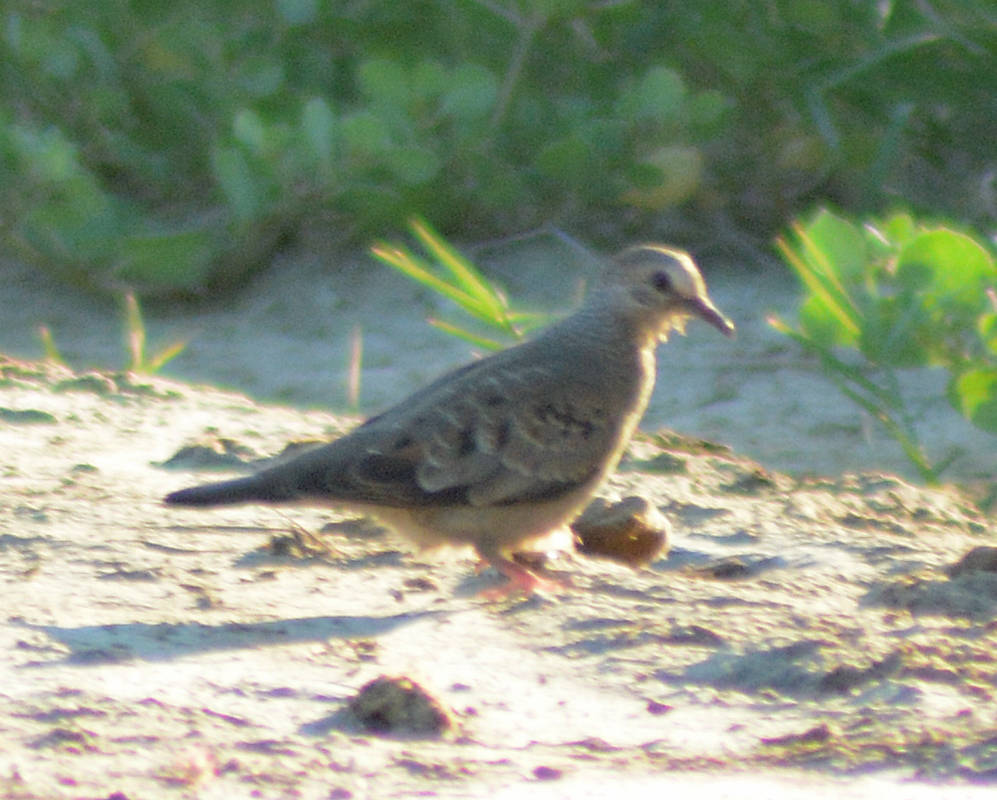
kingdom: Animalia
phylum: Chordata
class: Aves
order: Columbiformes
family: Columbidae
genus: Columbina
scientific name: Columbina passerina
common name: Common ground-dove
